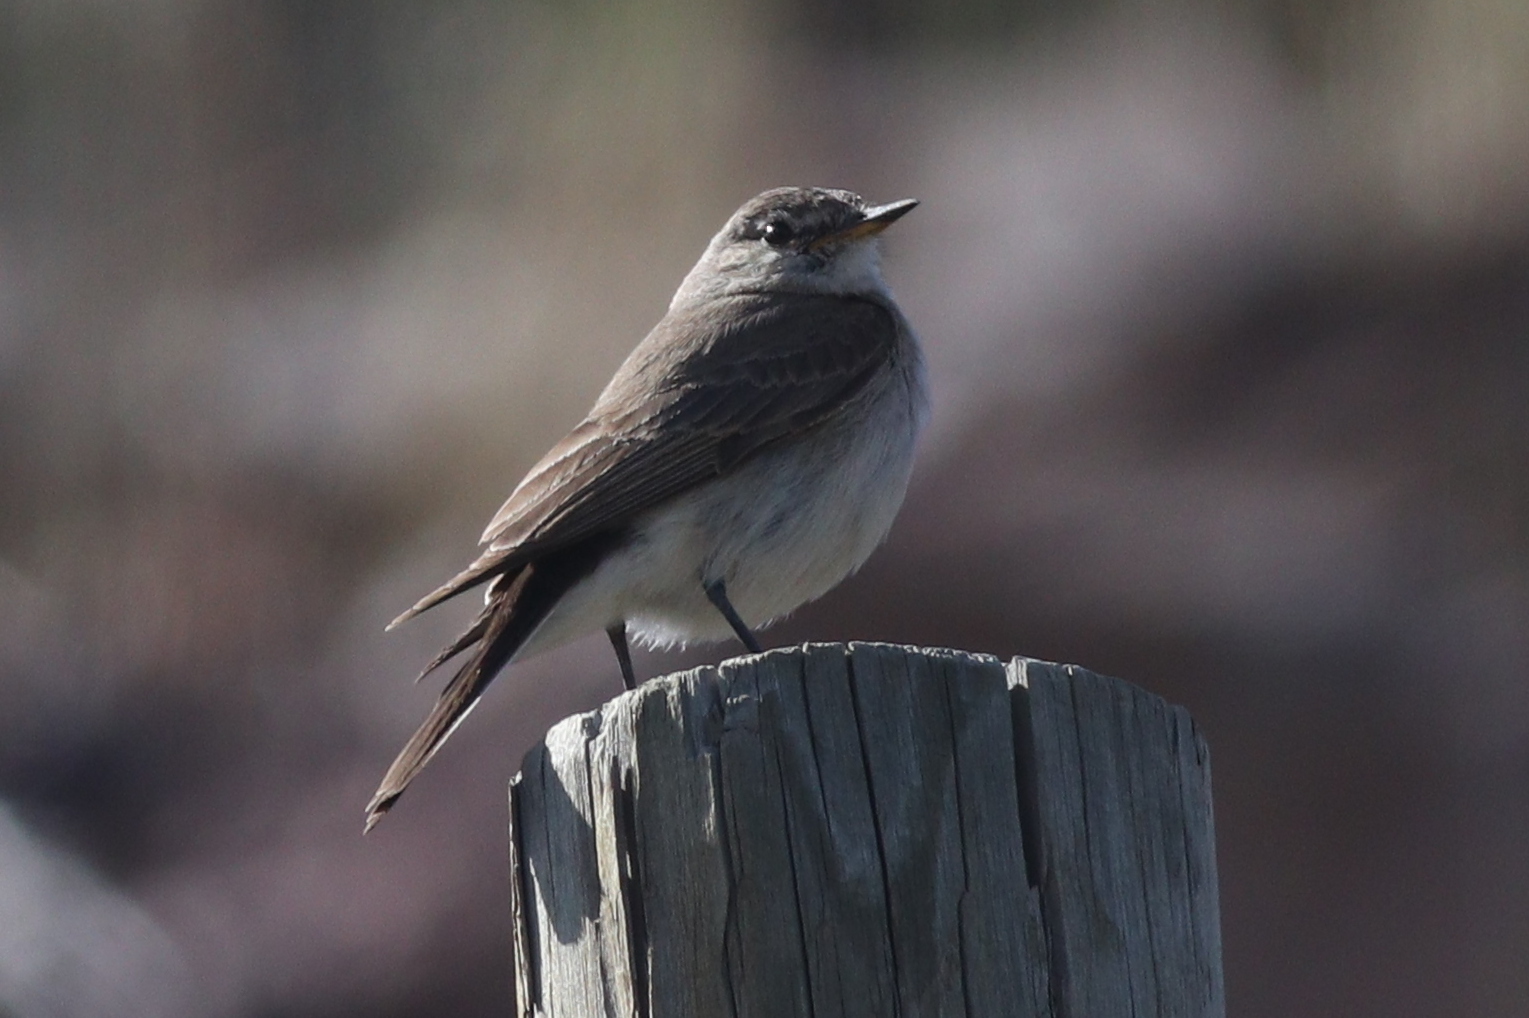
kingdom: Animalia
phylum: Chordata
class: Aves
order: Passeriformes
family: Tyrannidae
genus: Muscisaxicola
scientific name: Muscisaxicola maculirostris
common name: Spot-billed ground tyrant
